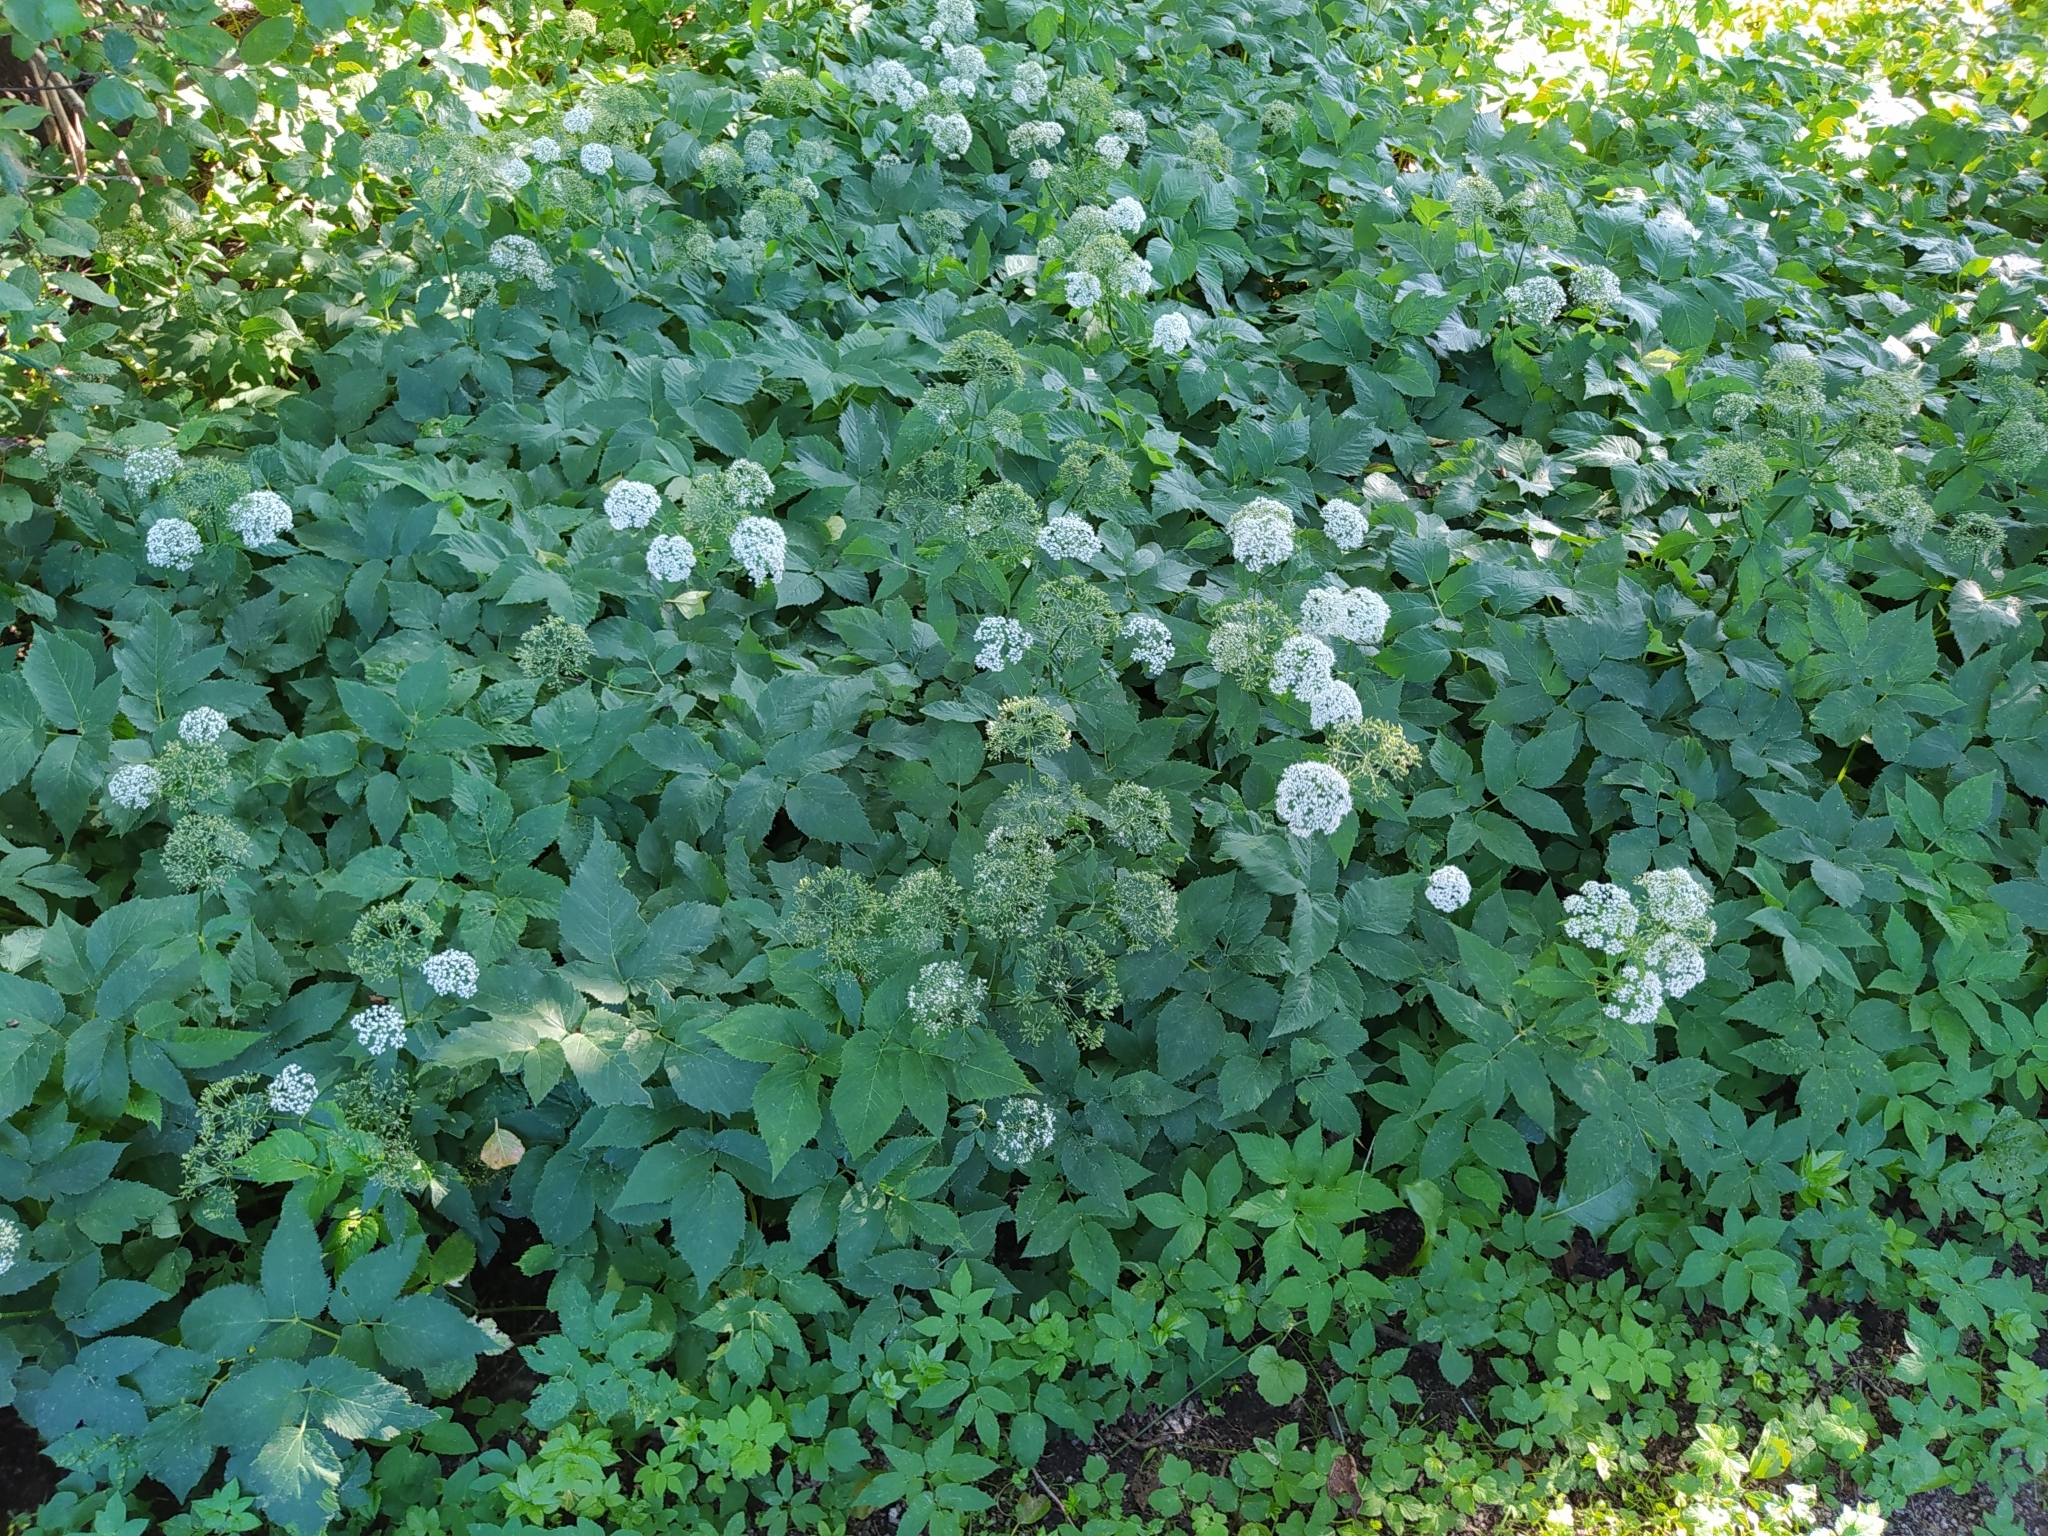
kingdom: Plantae
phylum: Tracheophyta
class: Magnoliopsida
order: Apiales
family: Apiaceae
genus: Aegopodium
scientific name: Aegopodium podagraria
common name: Ground-elder
